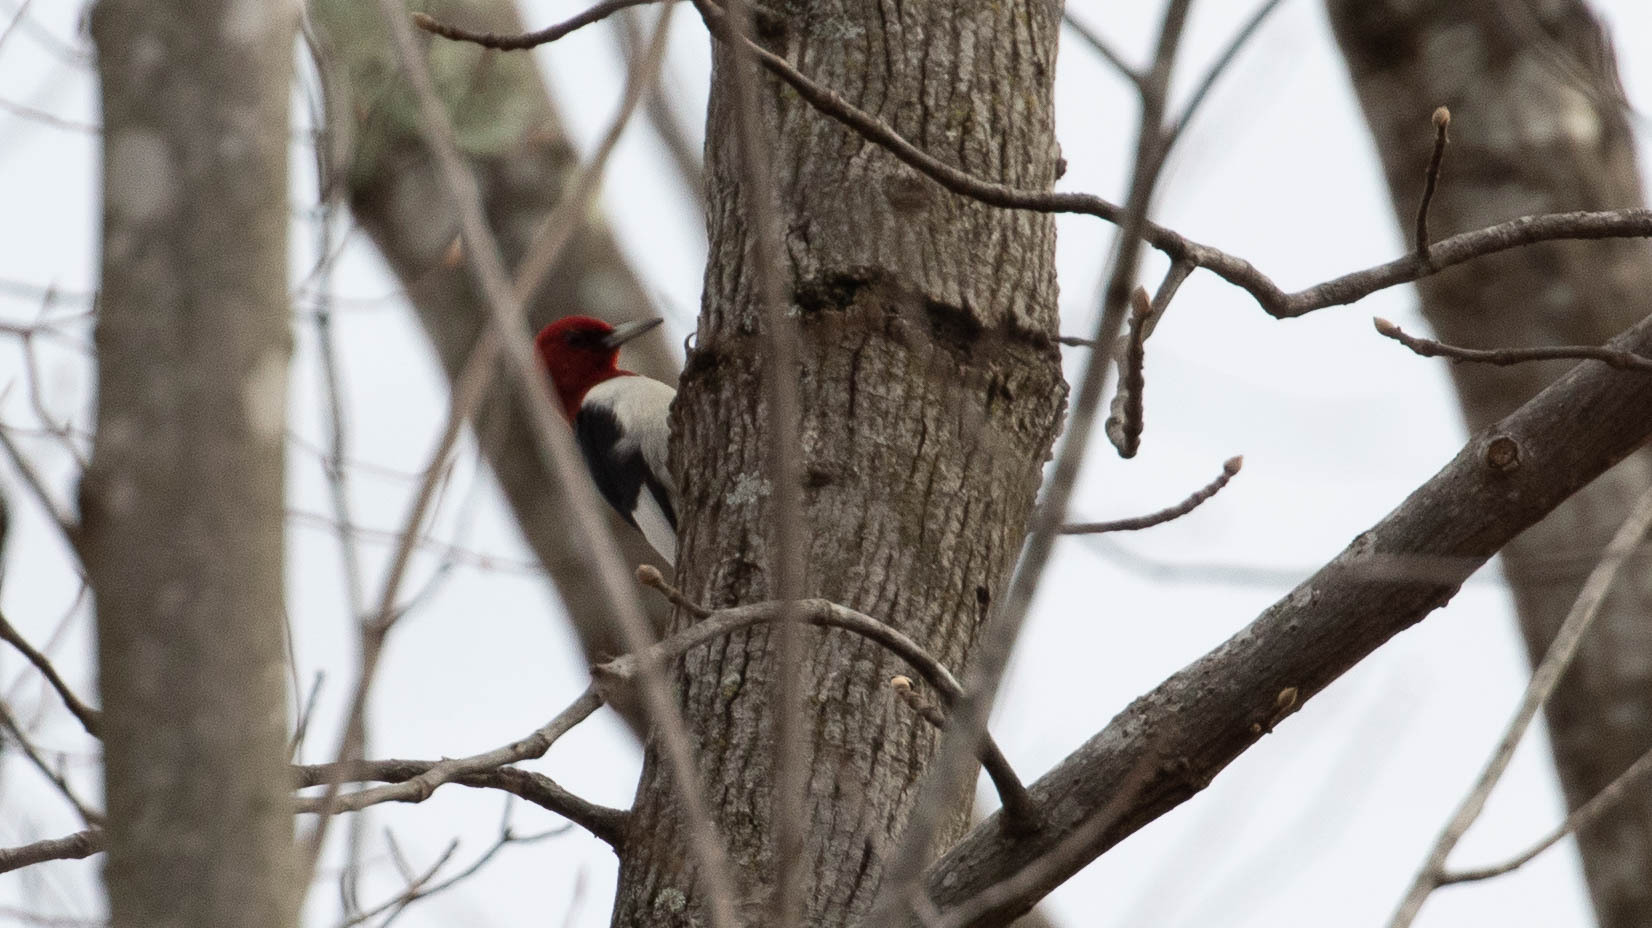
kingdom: Animalia
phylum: Chordata
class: Aves
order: Piciformes
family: Picidae
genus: Melanerpes
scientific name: Melanerpes erythrocephalus
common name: Red-headed woodpecker
